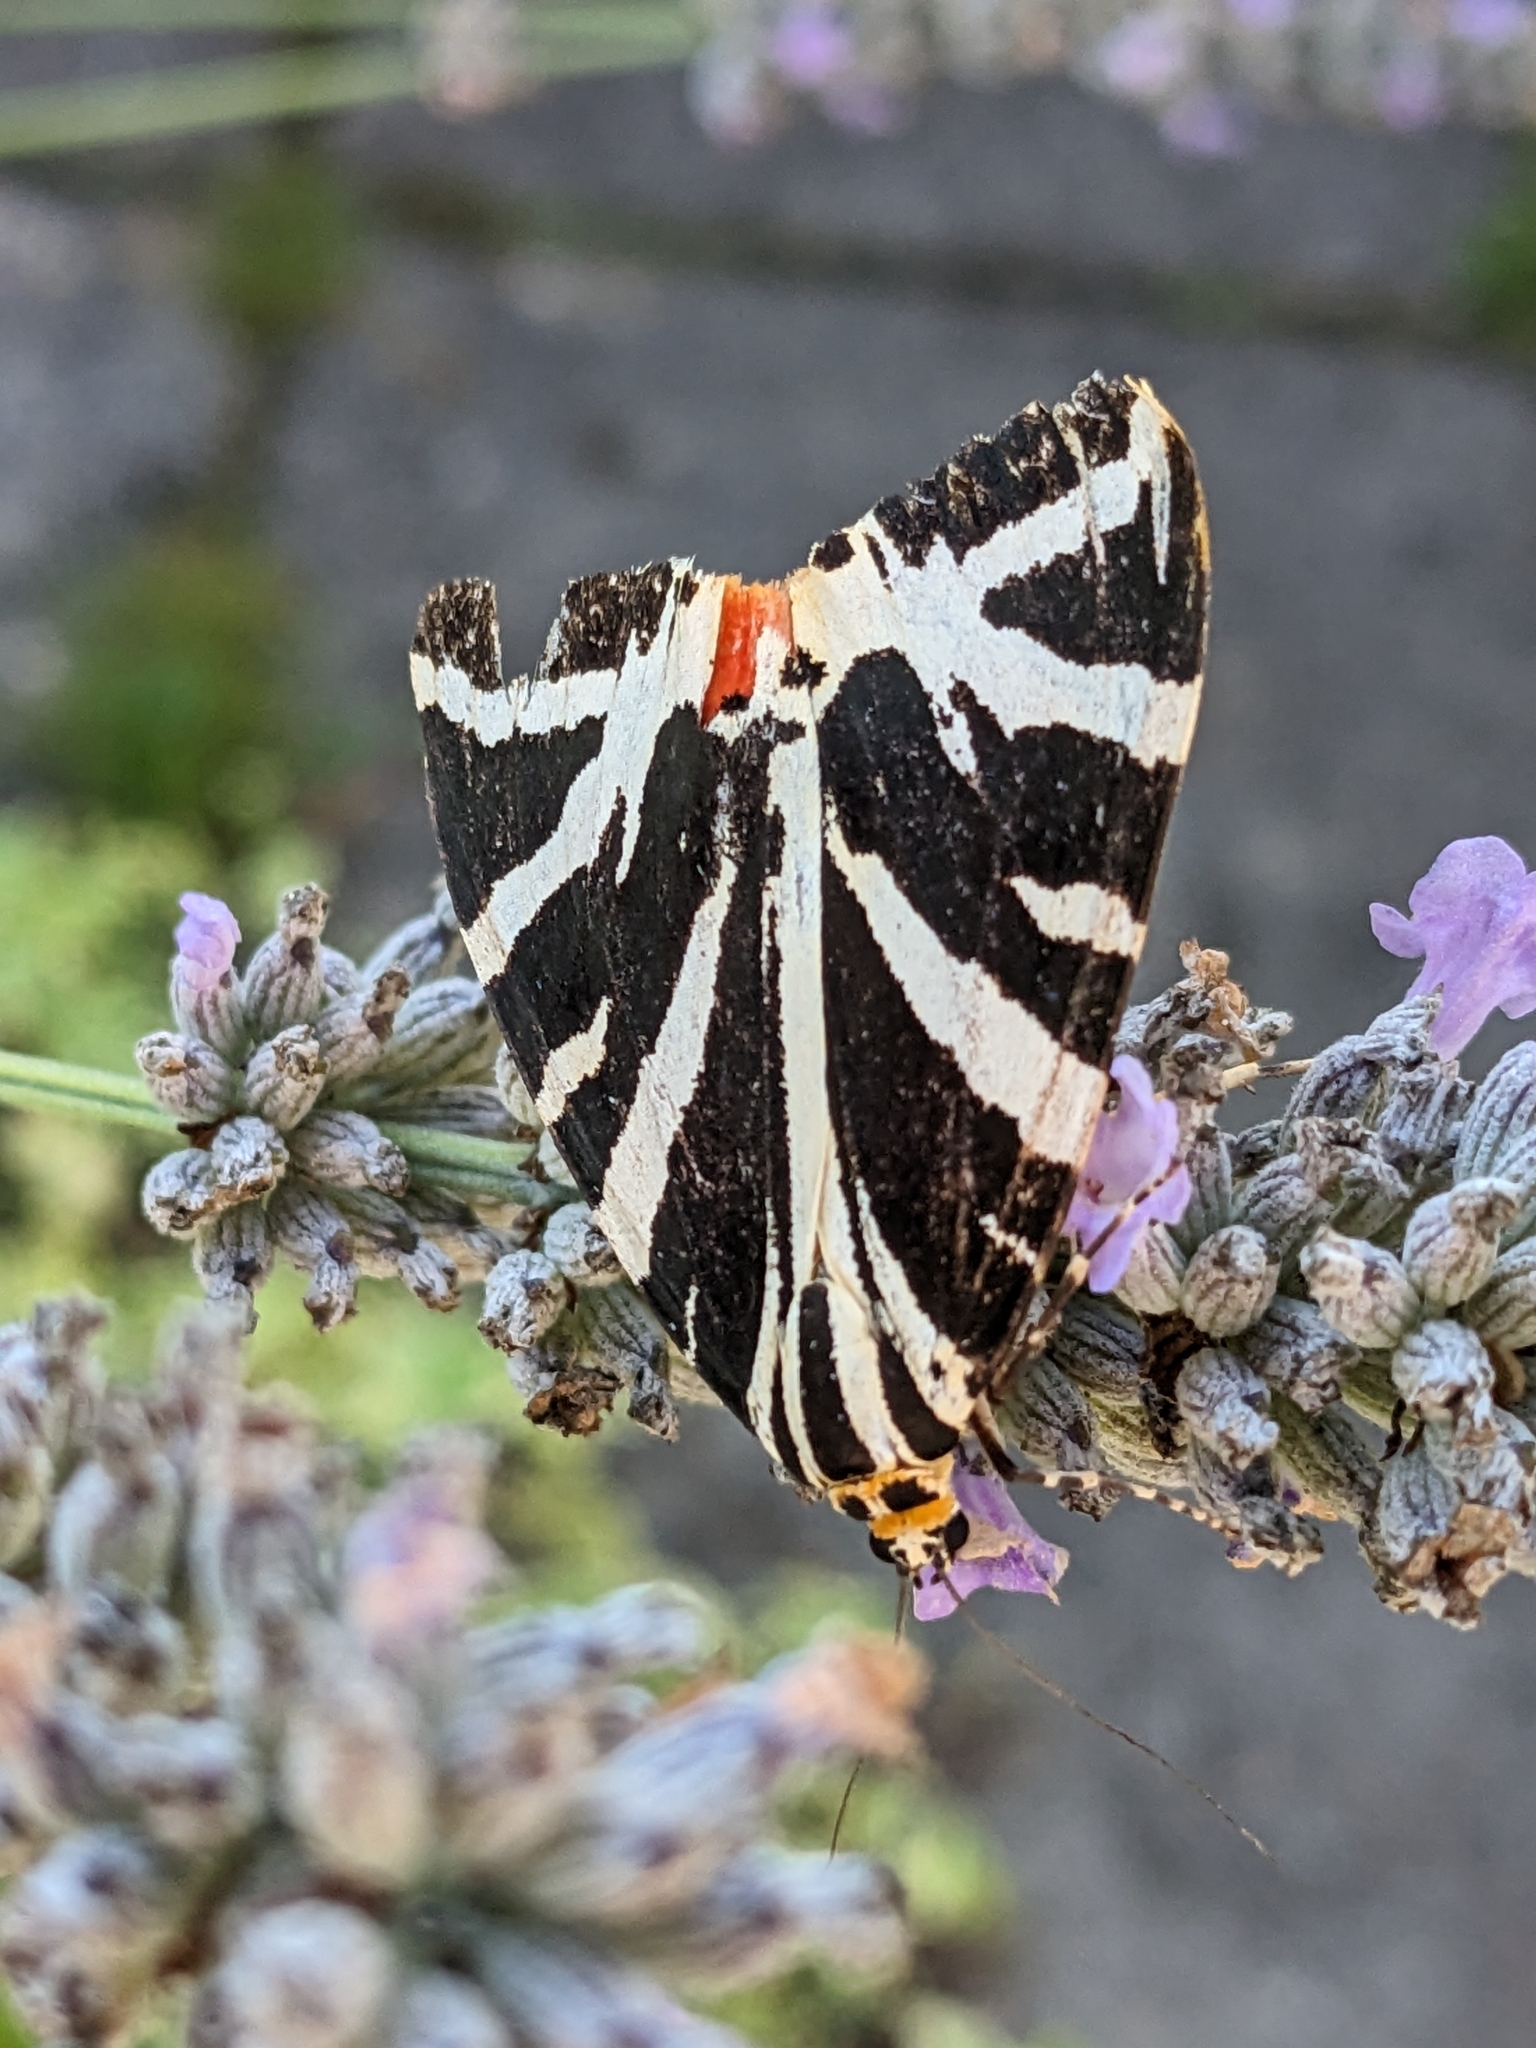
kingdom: Animalia
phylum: Arthropoda
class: Insecta
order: Lepidoptera
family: Erebidae
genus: Euplagia
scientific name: Euplagia quadripunctaria
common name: Jersey tiger
